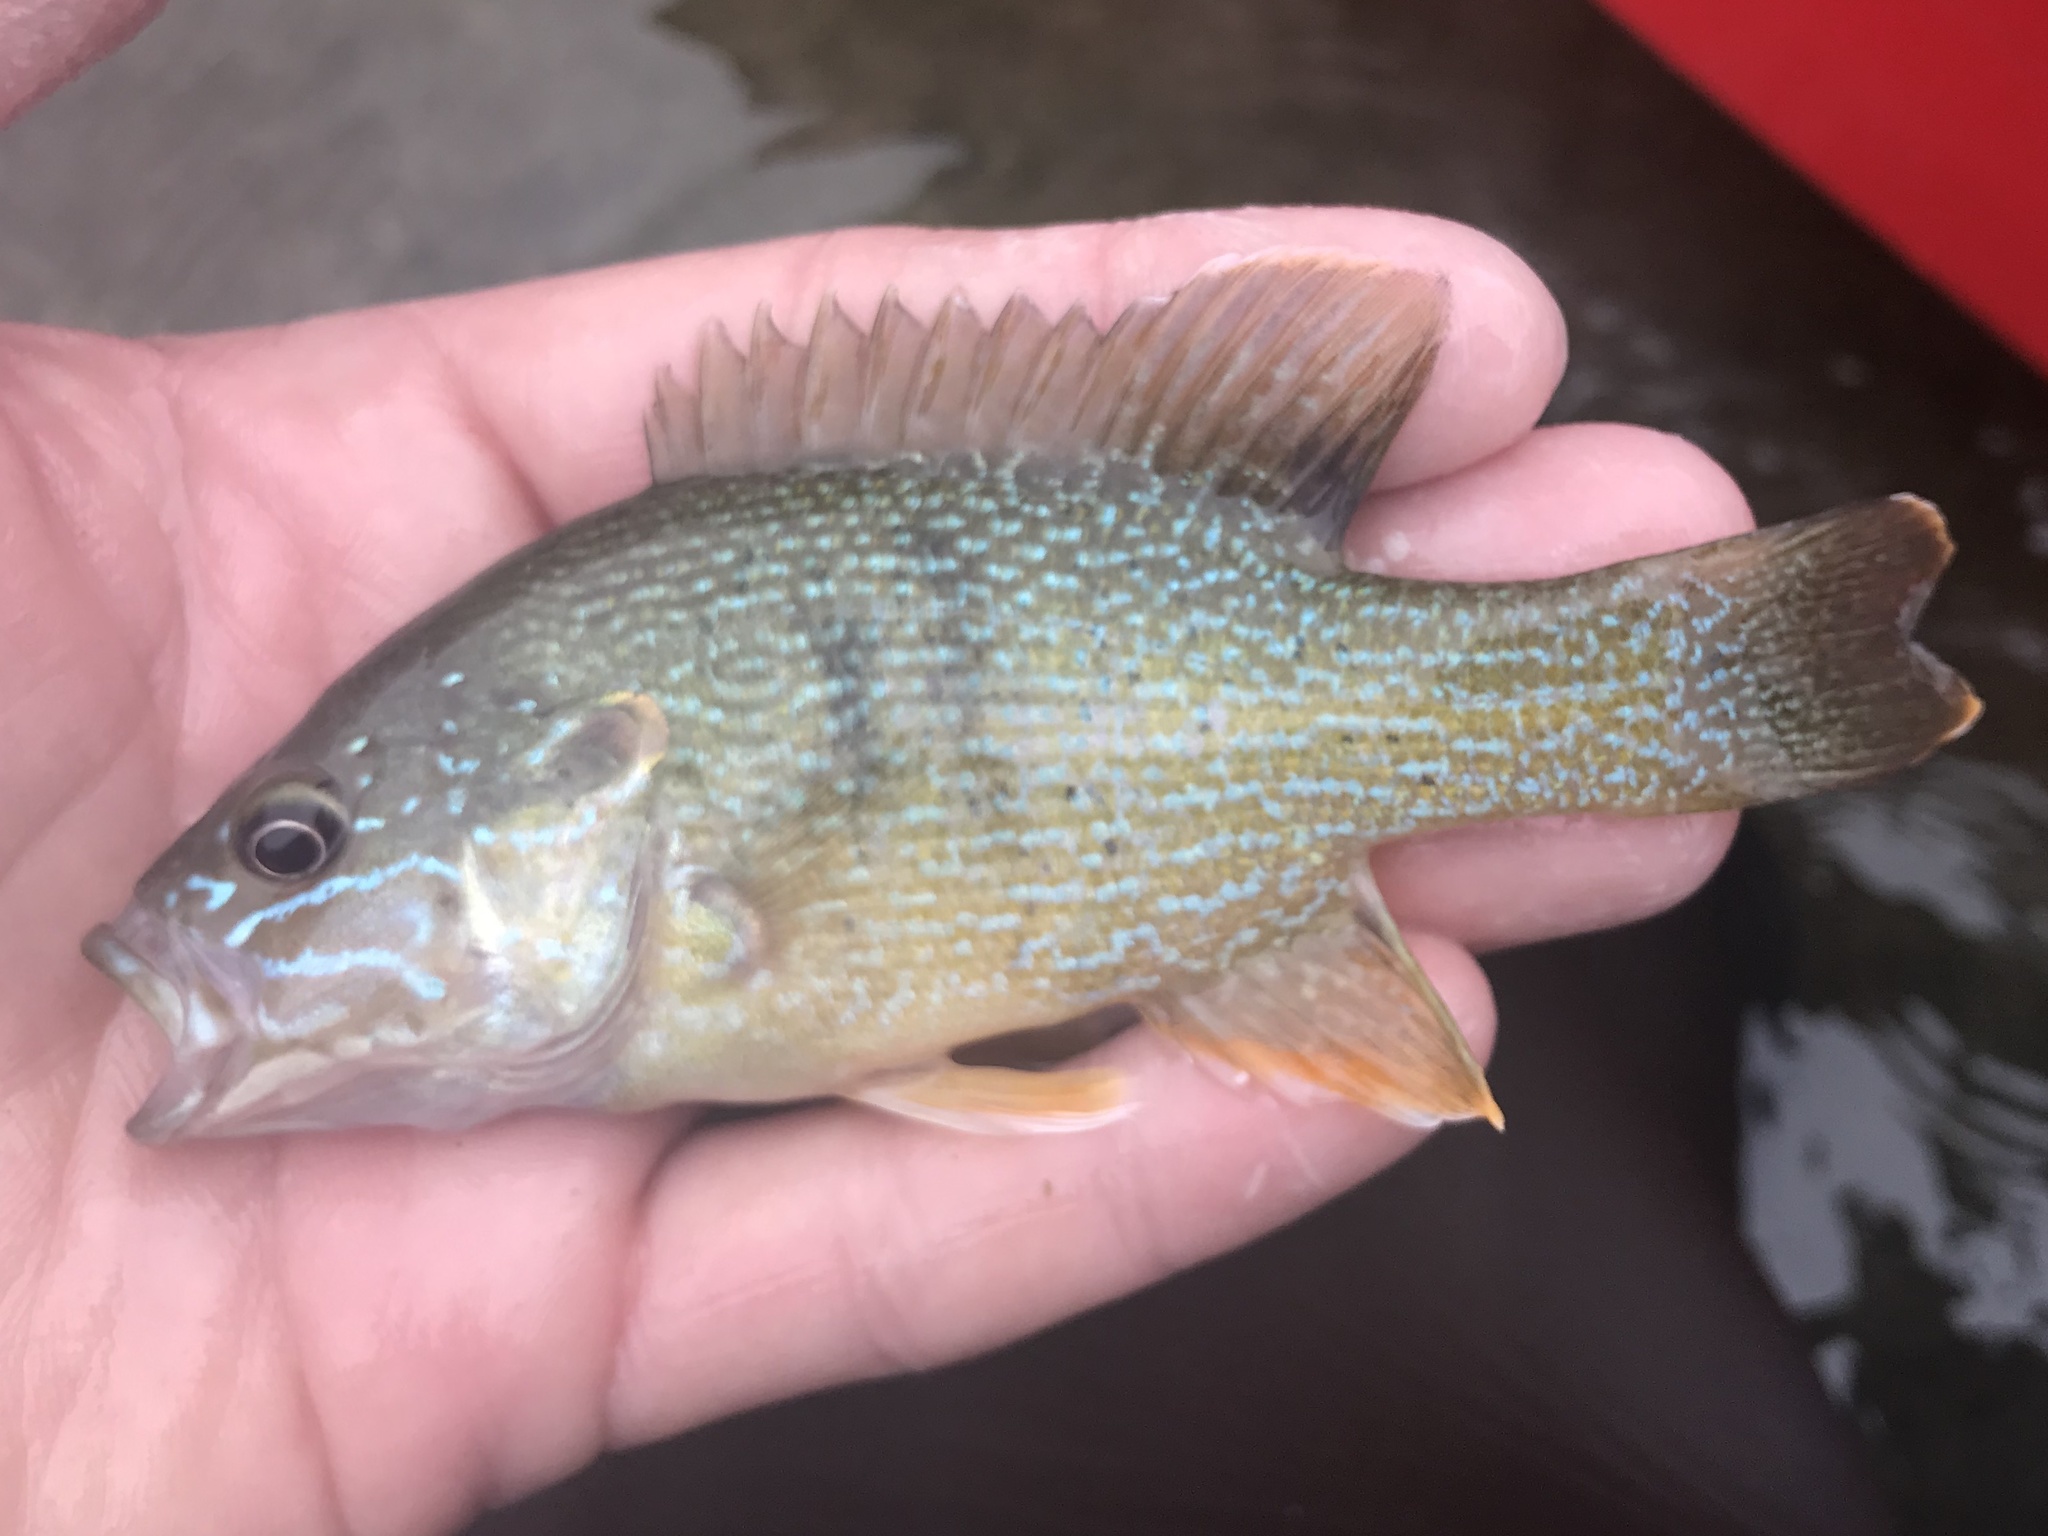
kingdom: Animalia
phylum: Chordata
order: Perciformes
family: Centrarchidae
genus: Lepomis
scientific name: Lepomis cyanellus
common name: Green sunfish
